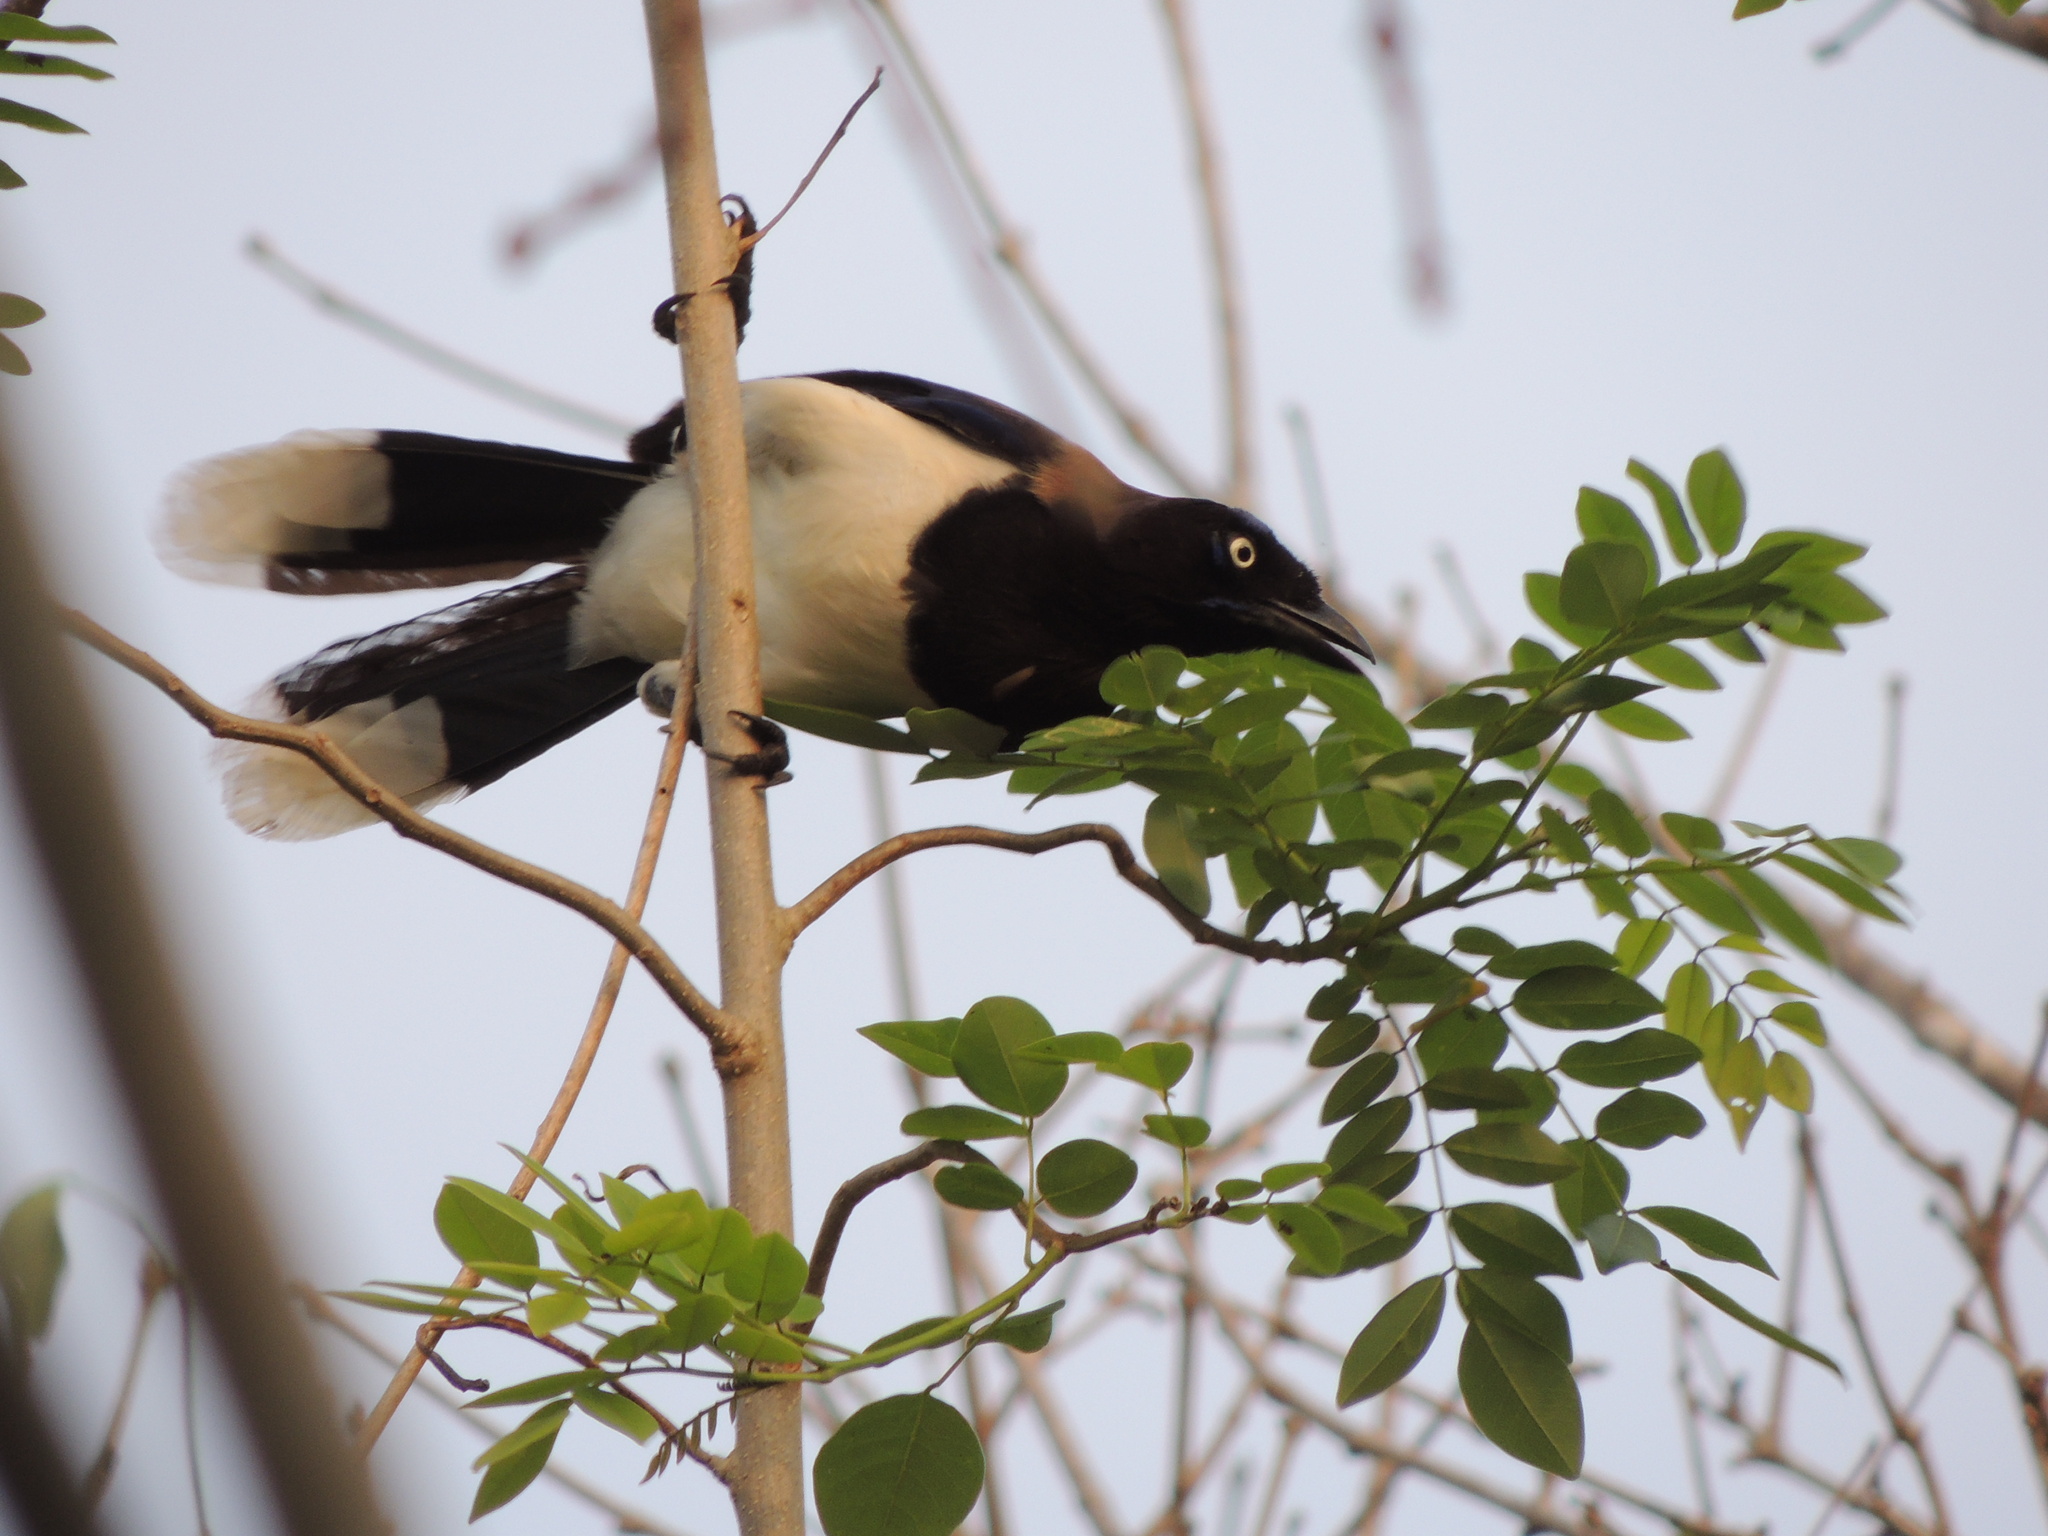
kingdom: Animalia
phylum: Chordata
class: Aves
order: Passeriformes
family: Corvidae
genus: Cyanocorax
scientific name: Cyanocorax affinis
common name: Black-chested jay
